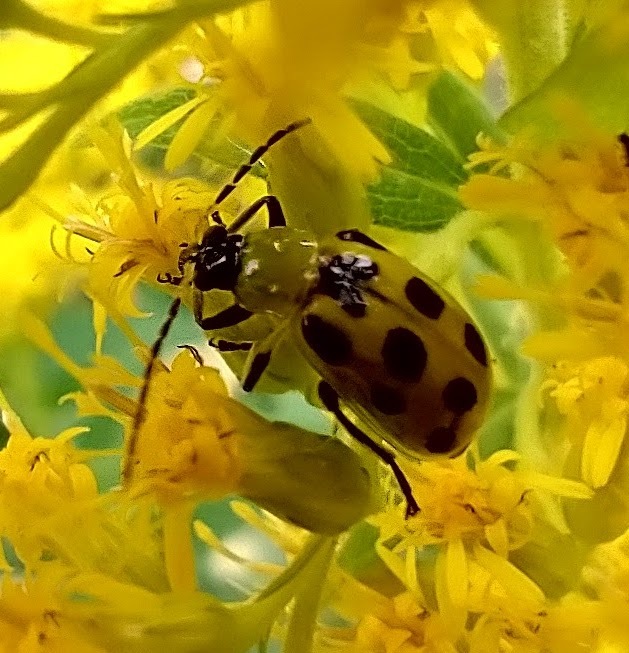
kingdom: Animalia
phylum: Arthropoda
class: Insecta
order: Coleoptera
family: Chrysomelidae
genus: Diabrotica
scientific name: Diabrotica undecimpunctata
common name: Spotted cucumber beetle
